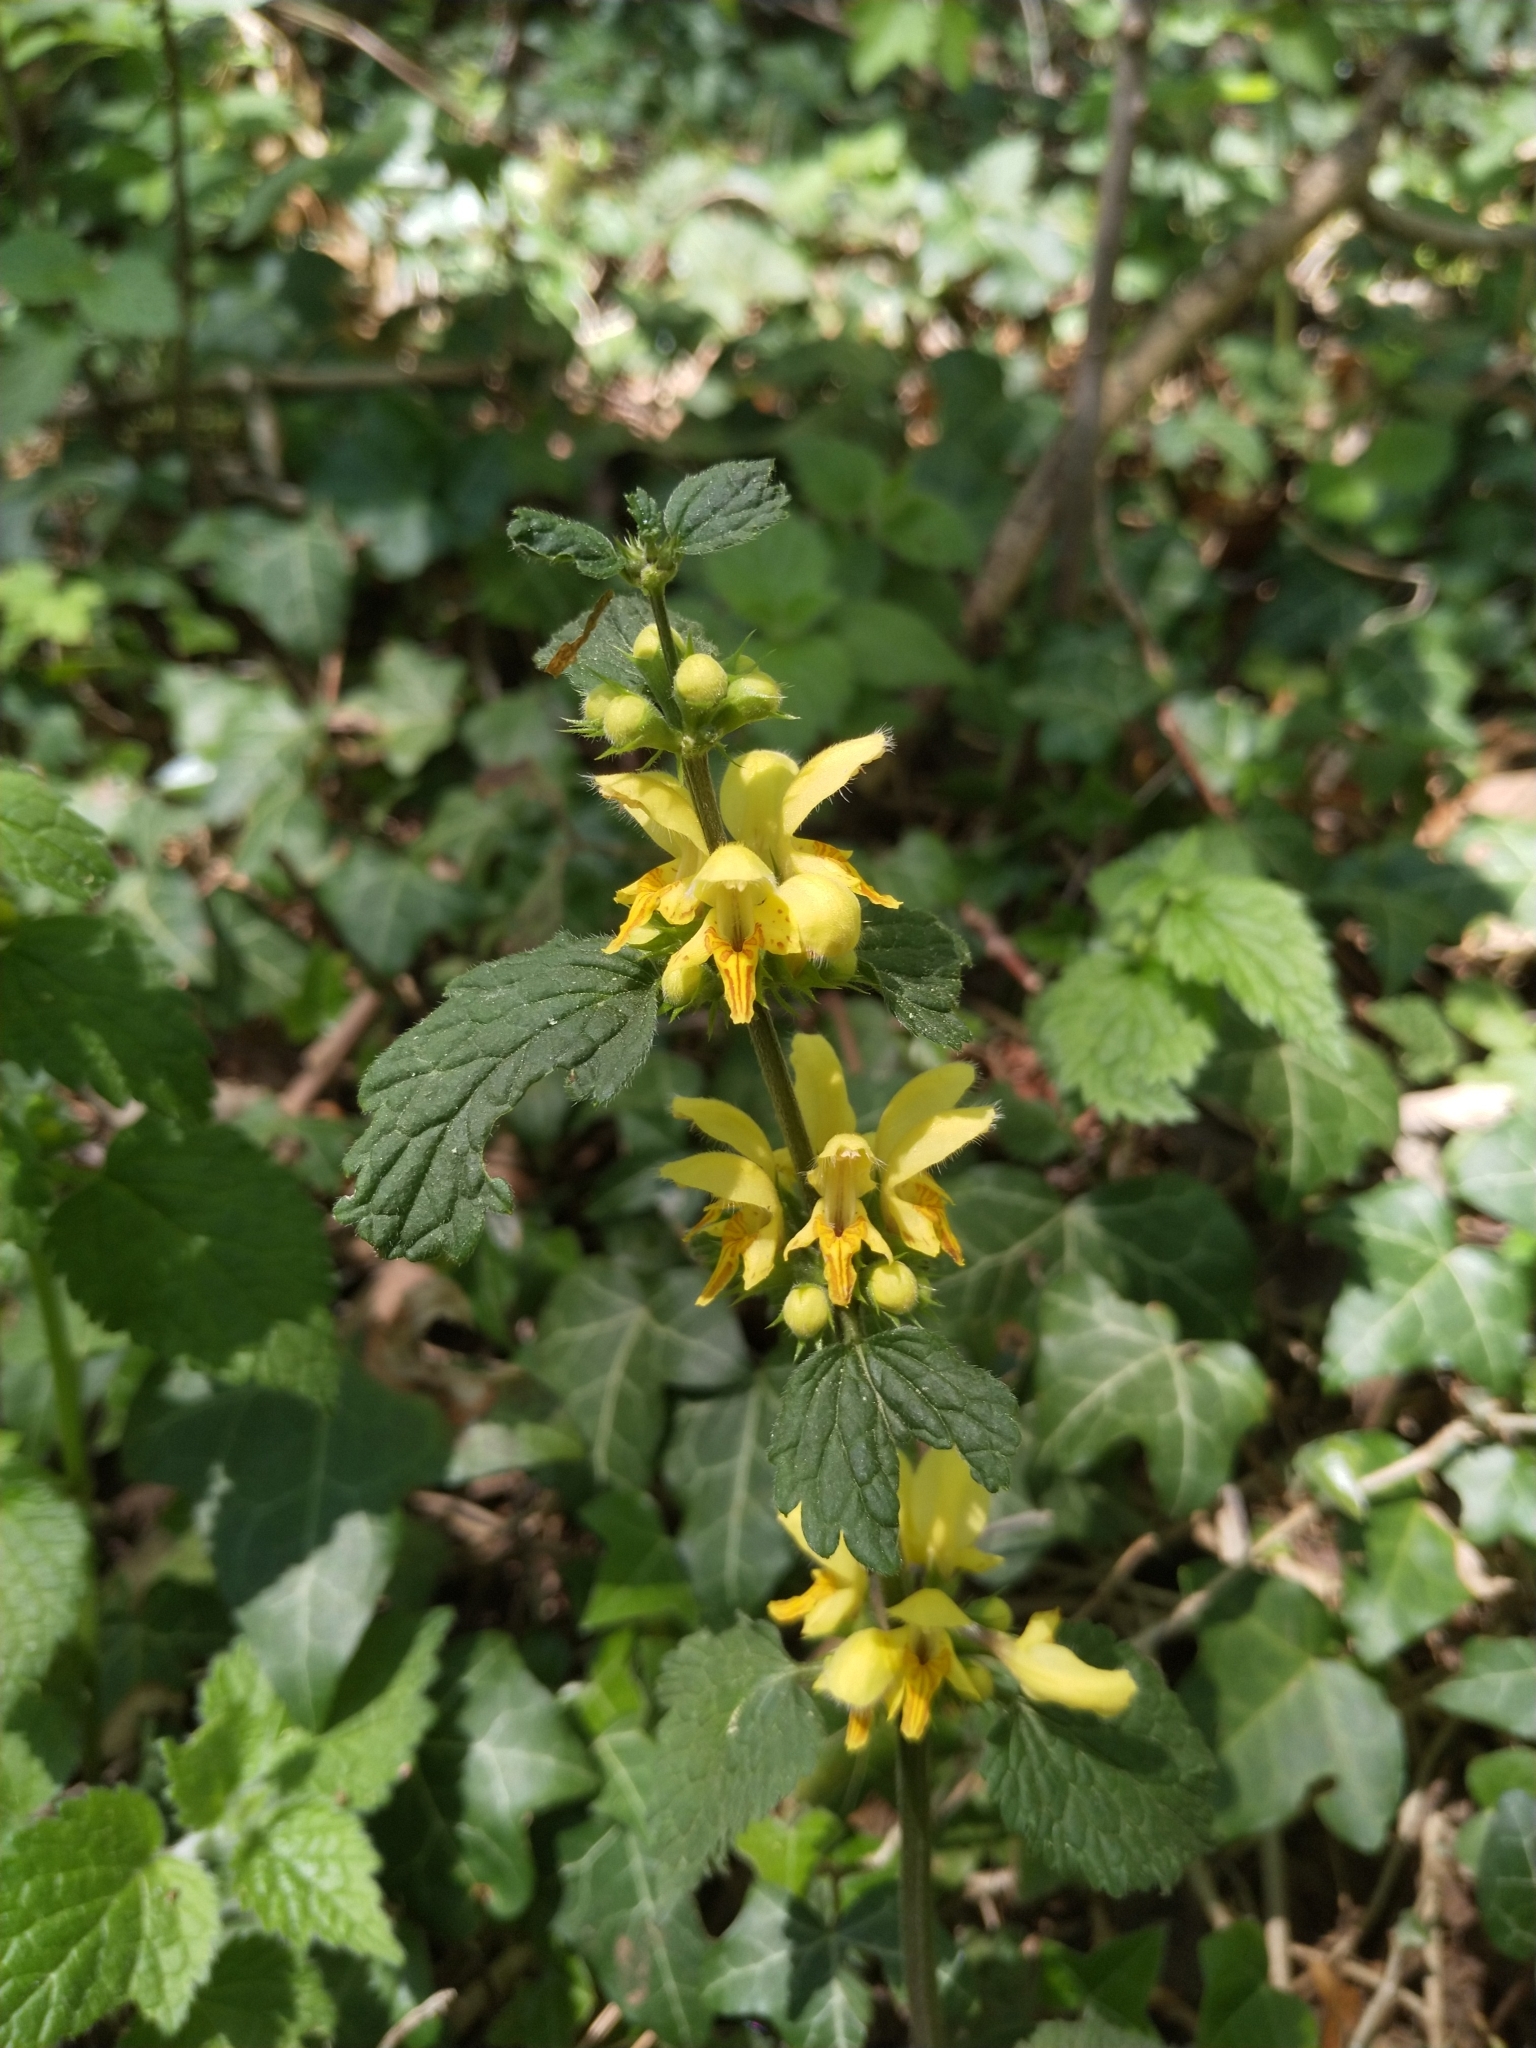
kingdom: Plantae
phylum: Tracheophyta
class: Magnoliopsida
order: Lamiales
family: Lamiaceae
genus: Lamium
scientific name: Lamium galeobdolon
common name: Yellow archangel
